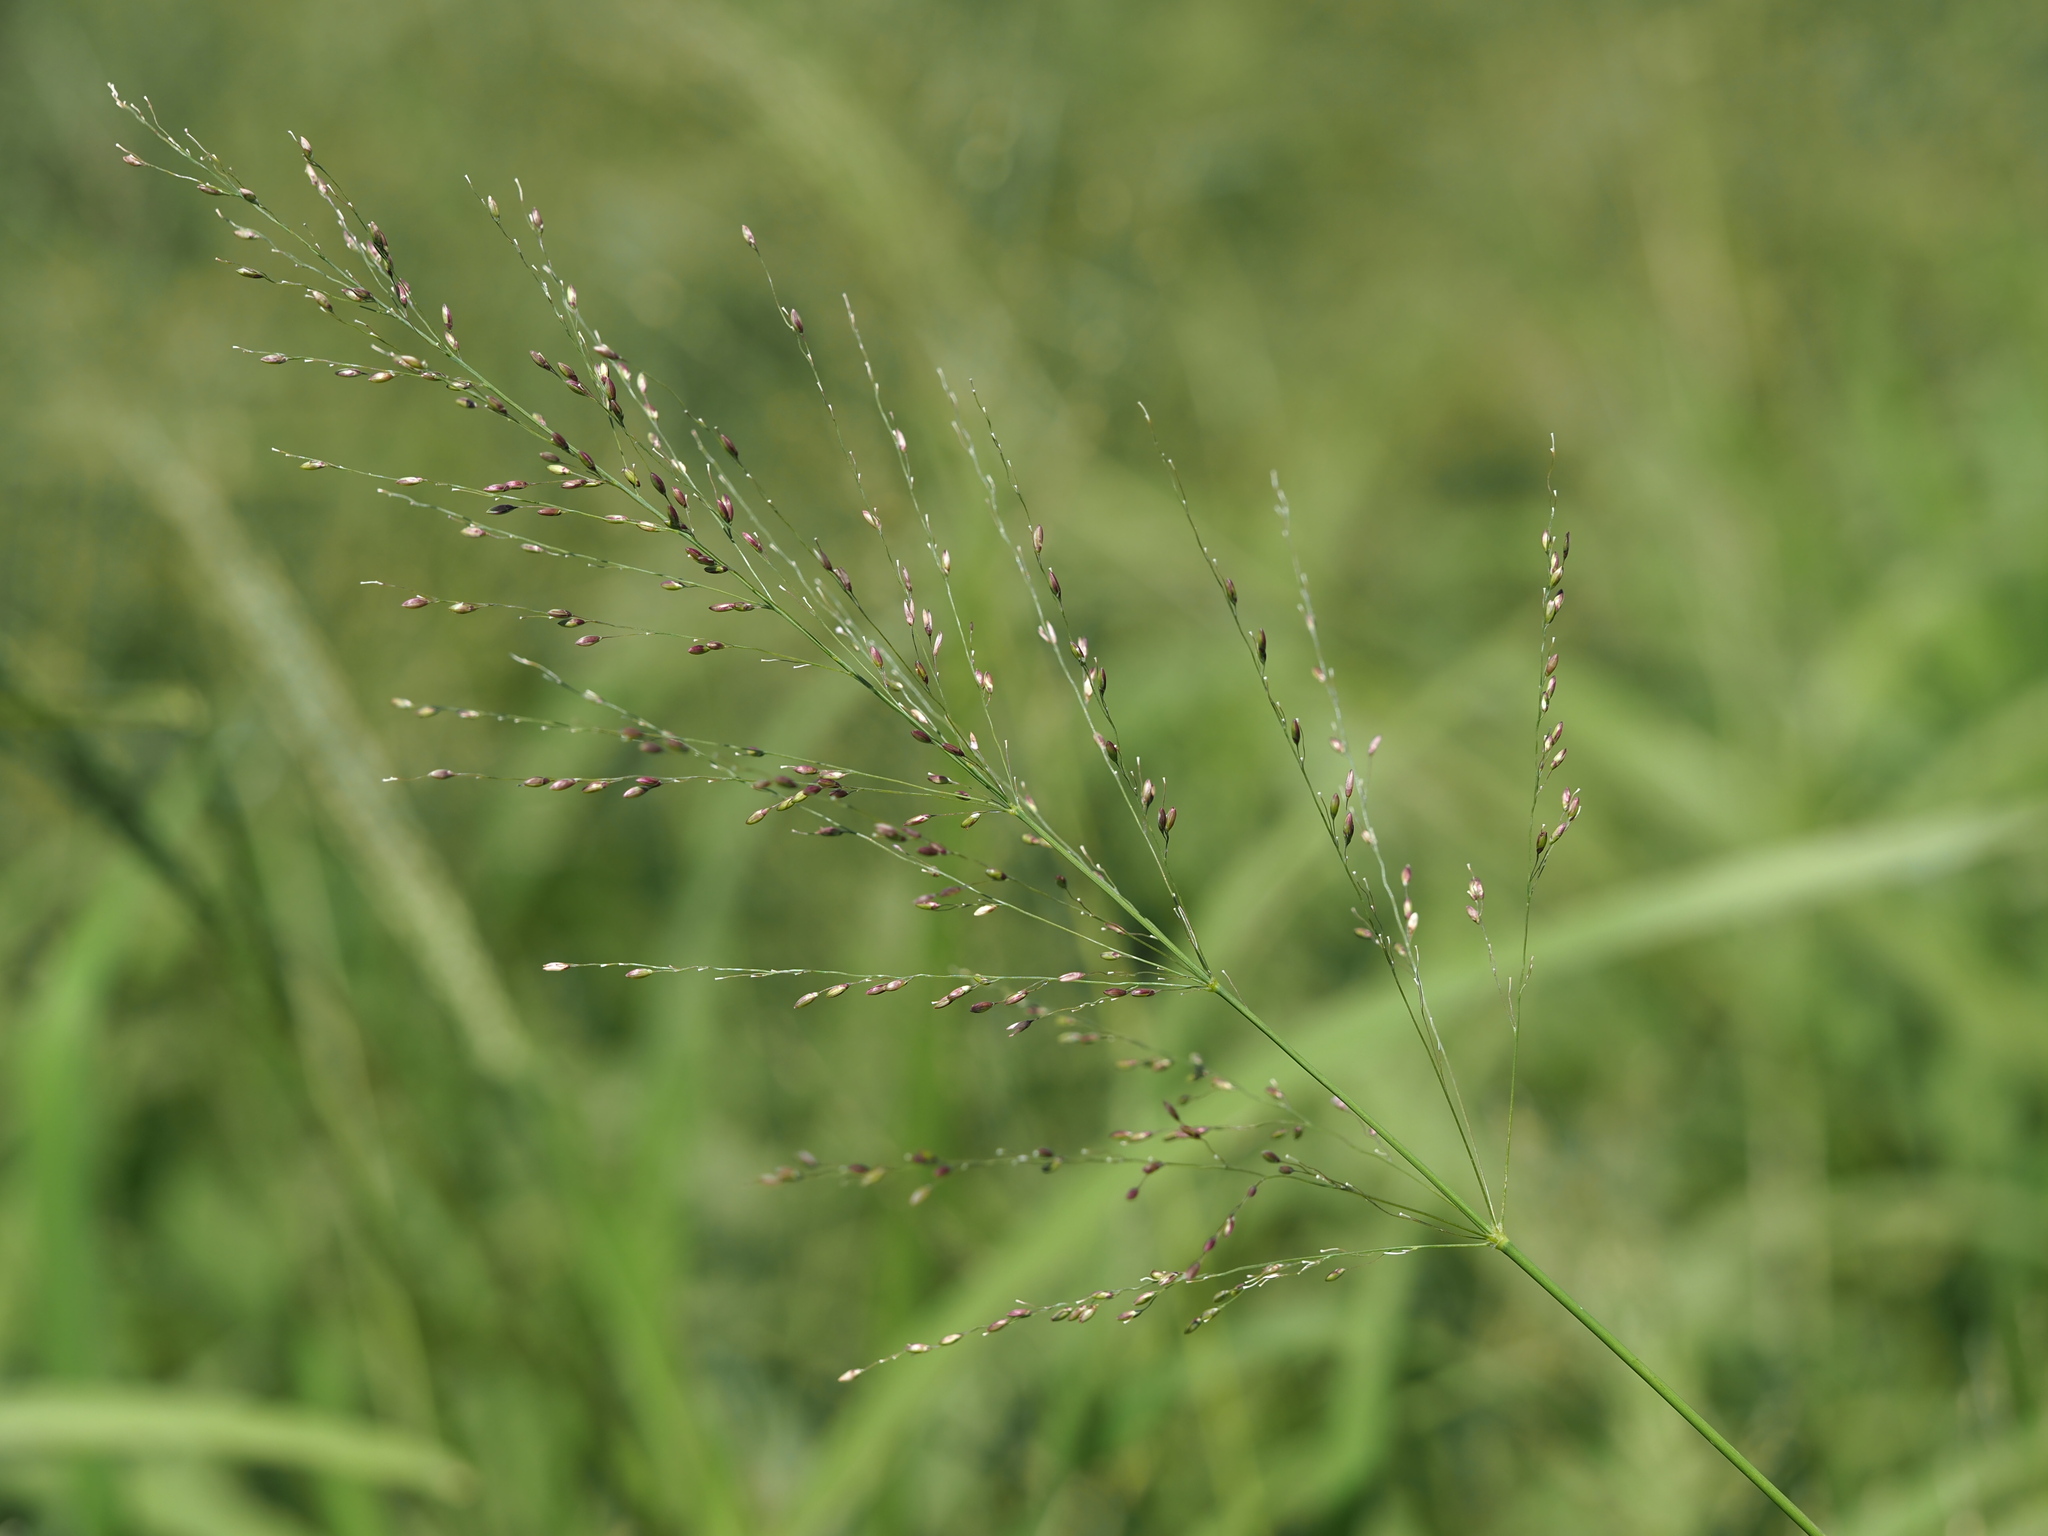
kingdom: Plantae
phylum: Tracheophyta
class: Liliopsida
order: Poales
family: Poaceae
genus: Megathyrsus
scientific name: Megathyrsus maximus
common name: Guineagrass
